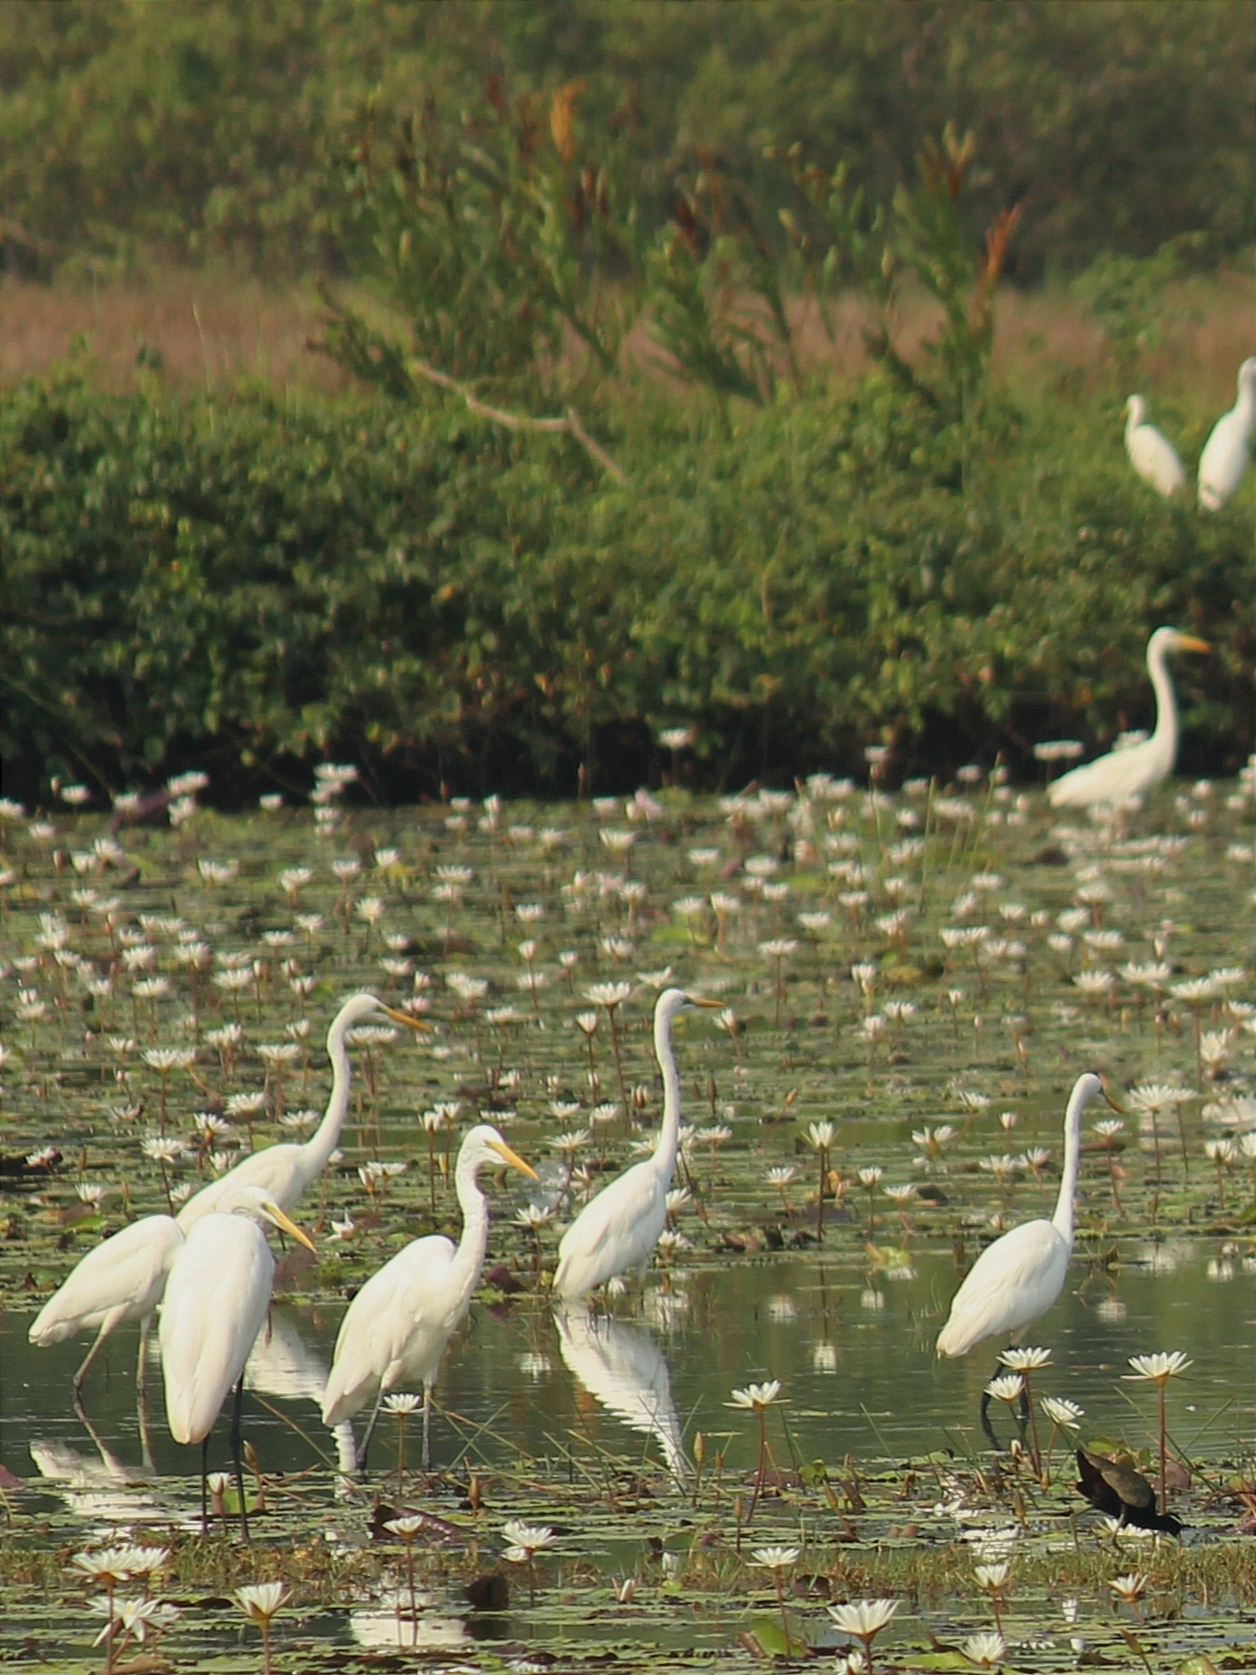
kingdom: Animalia
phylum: Chordata
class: Aves
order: Pelecaniformes
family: Ardeidae
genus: Ardea
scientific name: Ardea alba
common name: Great egret
